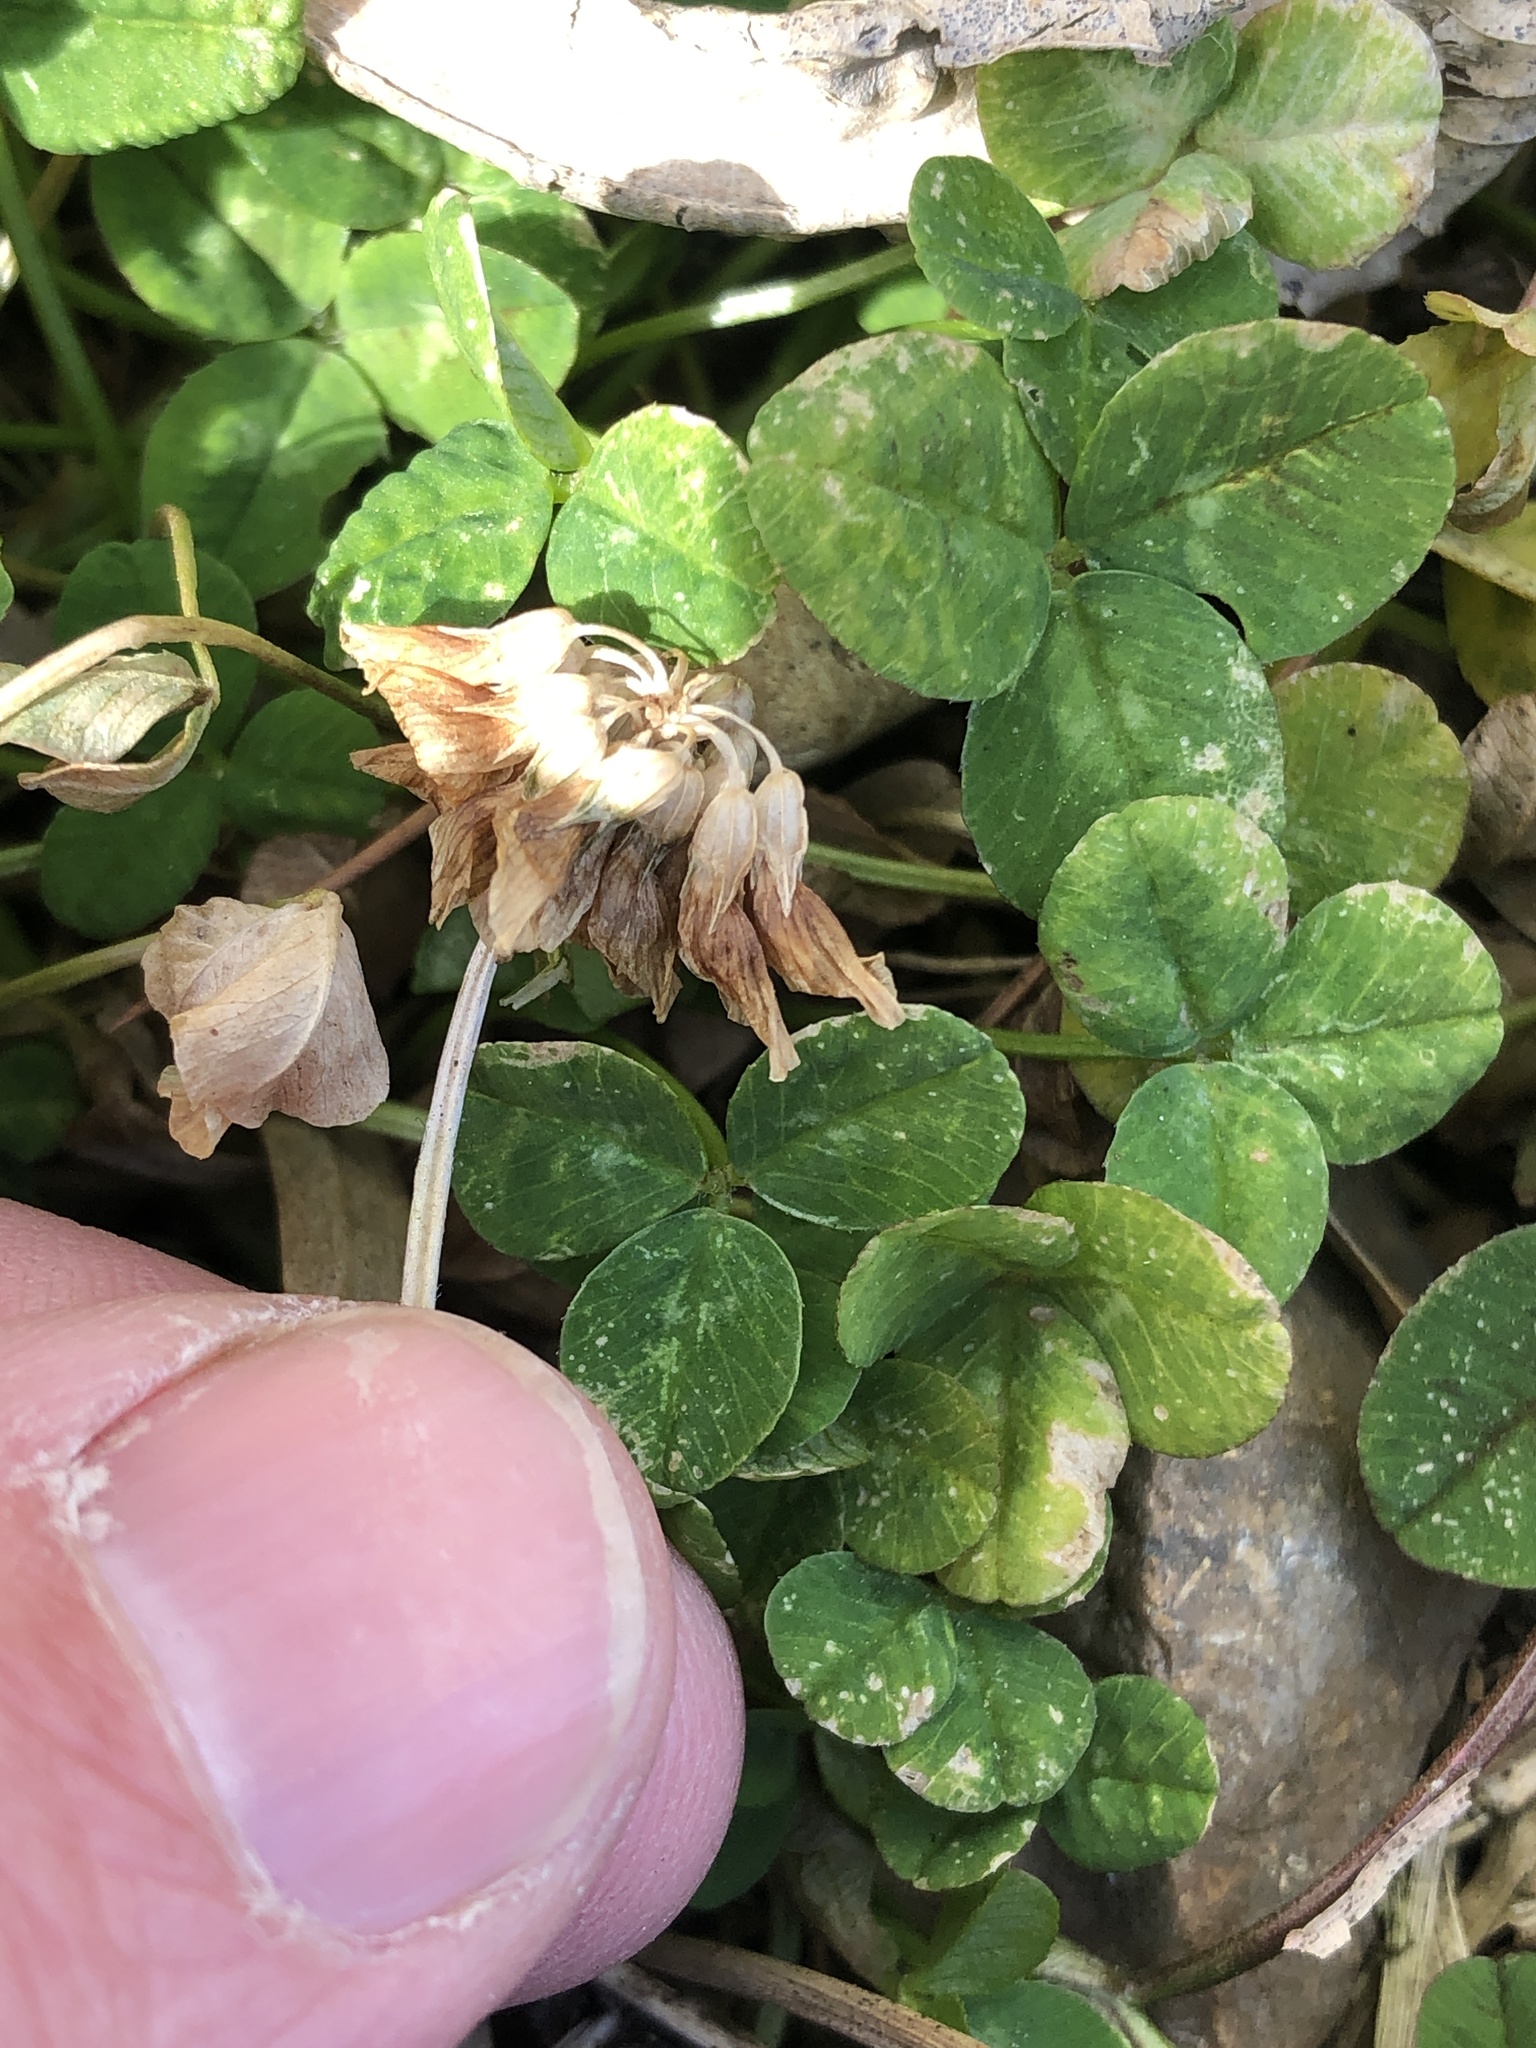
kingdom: Plantae
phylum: Tracheophyta
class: Magnoliopsida
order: Fabales
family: Fabaceae
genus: Trifolium
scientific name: Trifolium repens
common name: White clover
